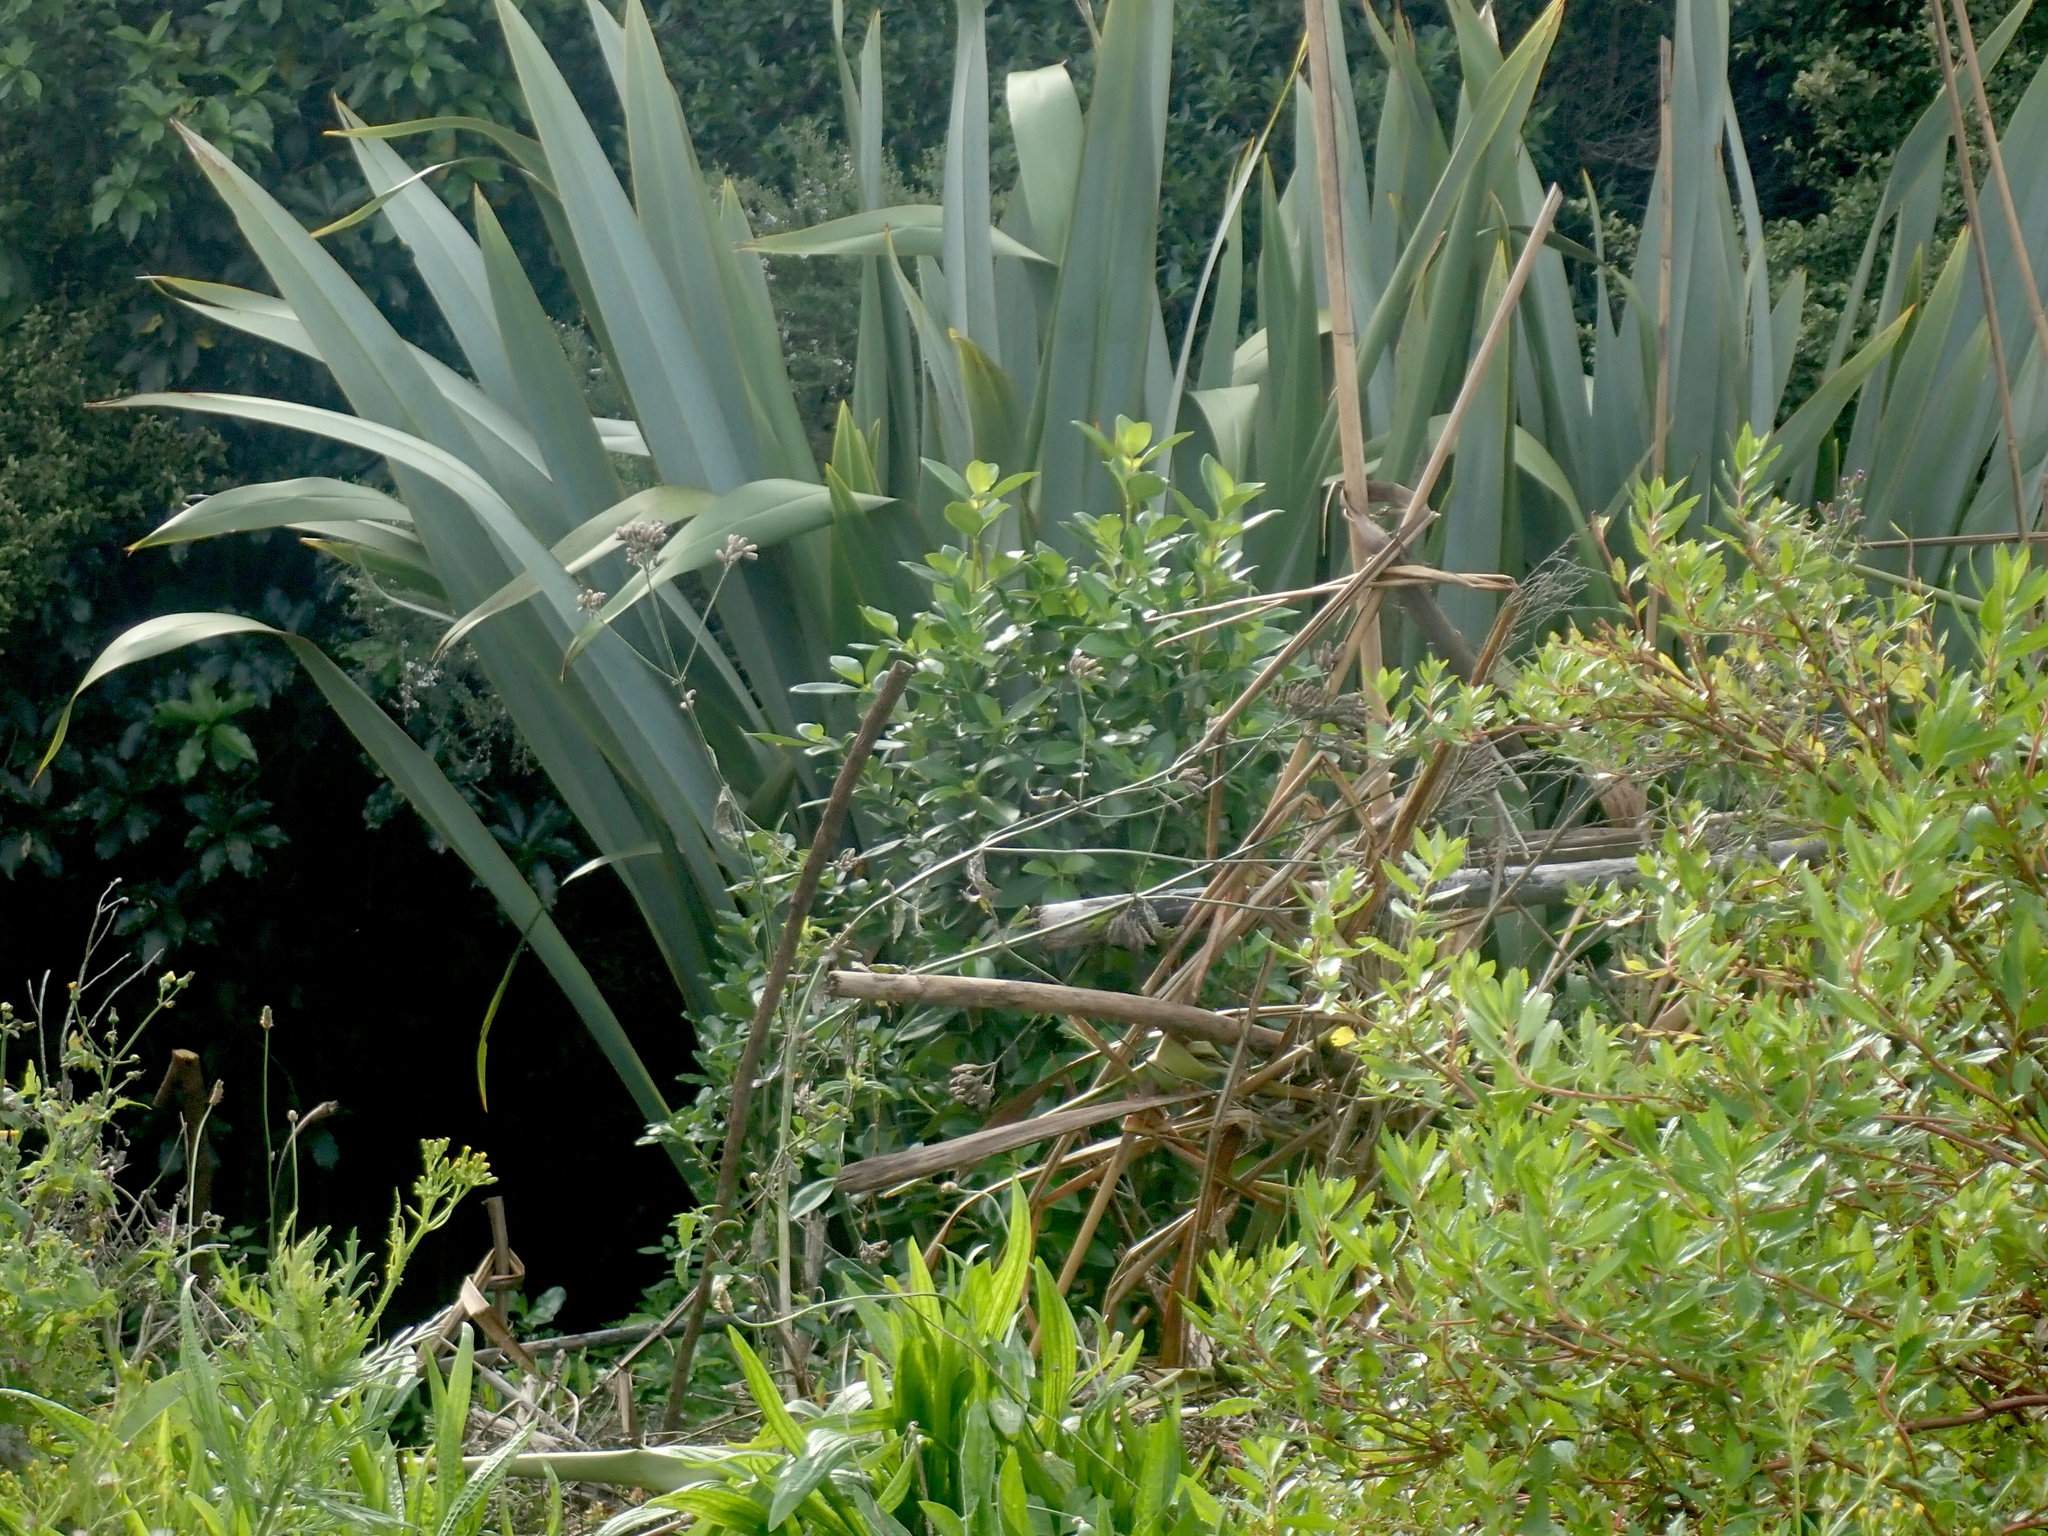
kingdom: Plantae
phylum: Tracheophyta
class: Magnoliopsida
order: Gentianales
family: Rubiaceae
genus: Coprosma
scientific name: Coprosma robusta
